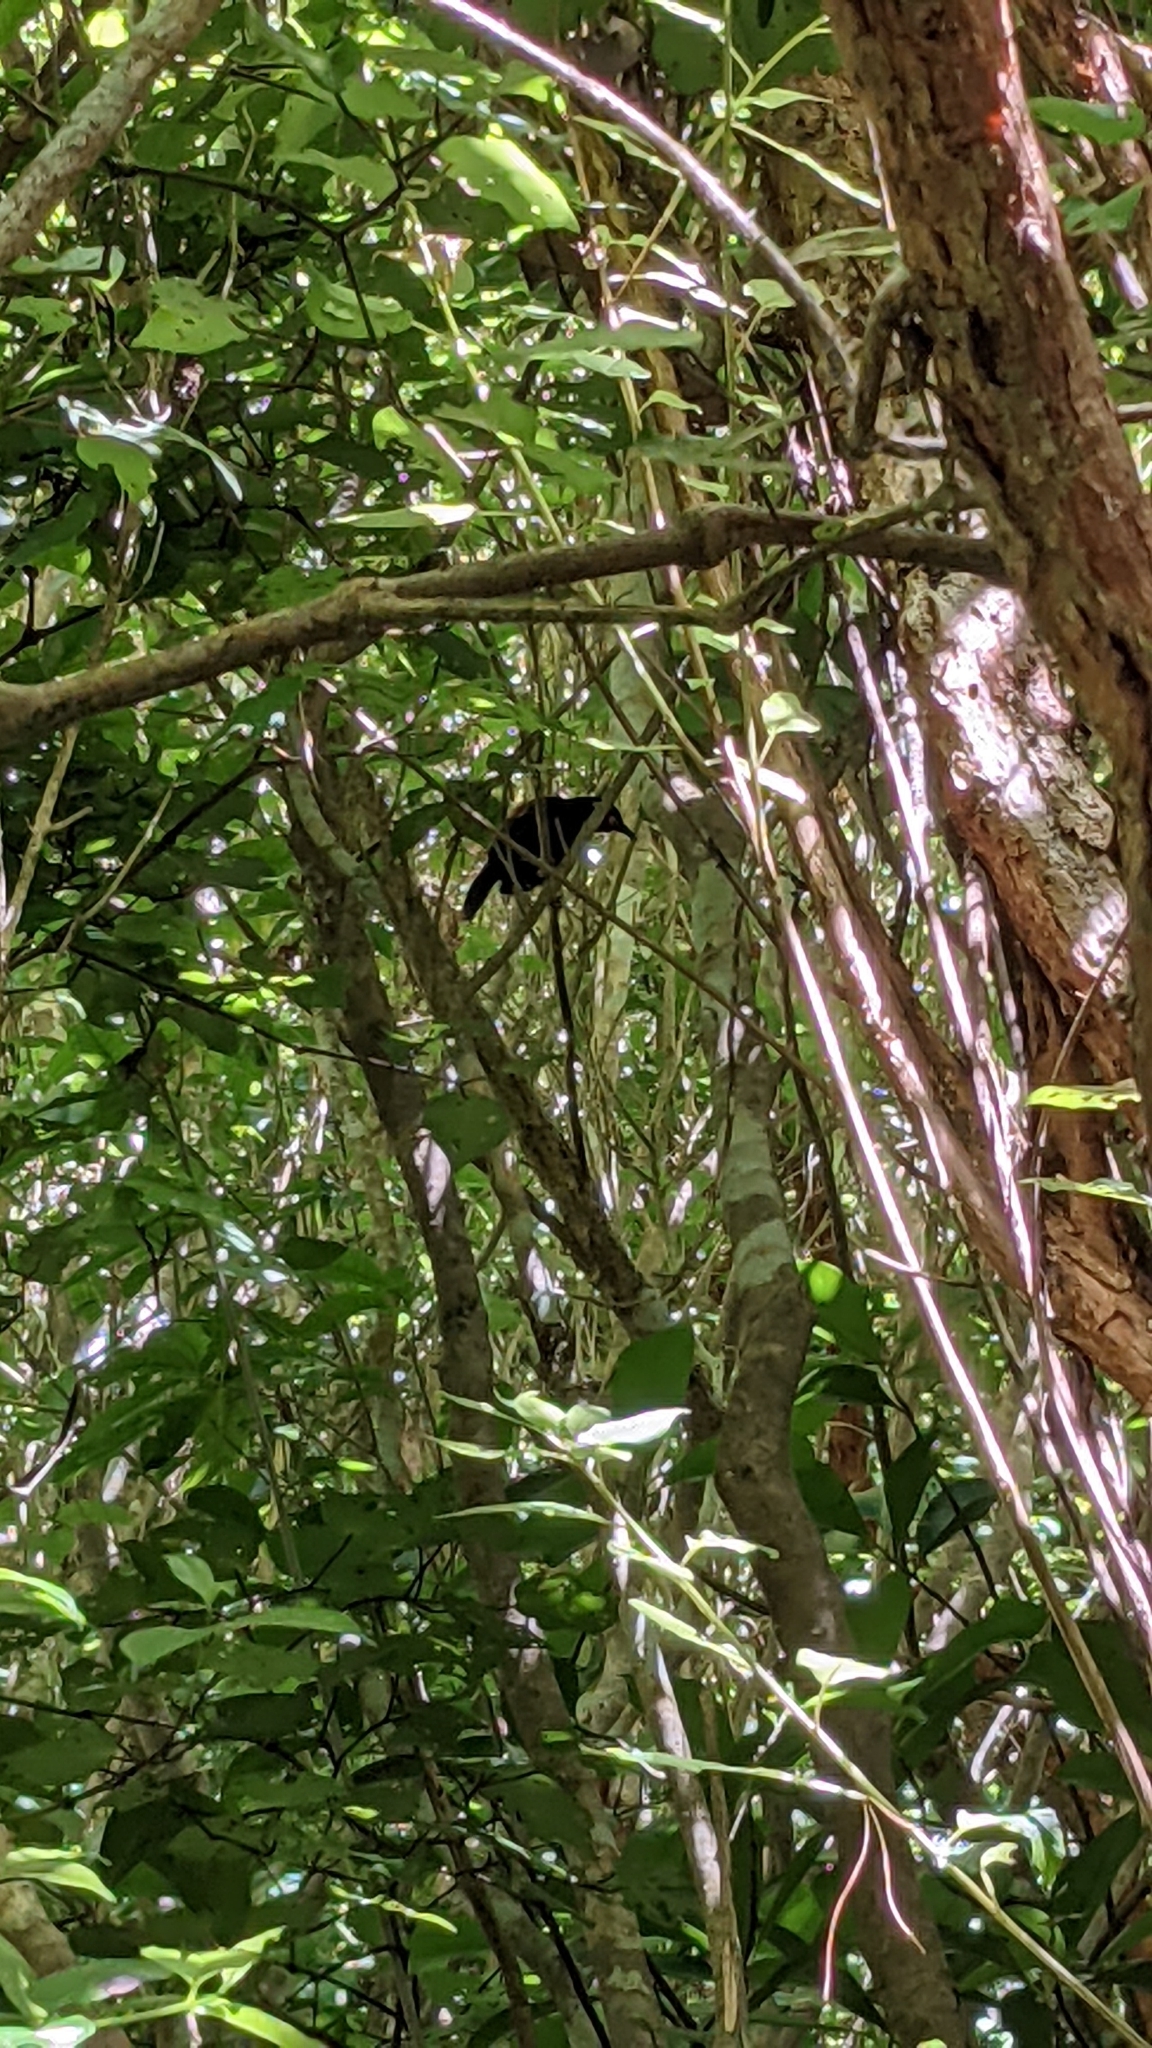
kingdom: Animalia
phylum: Chordata
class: Aves
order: Passeriformes
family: Callaeatidae
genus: Philesturnus
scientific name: Philesturnus carunculatus
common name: South island saddleback
